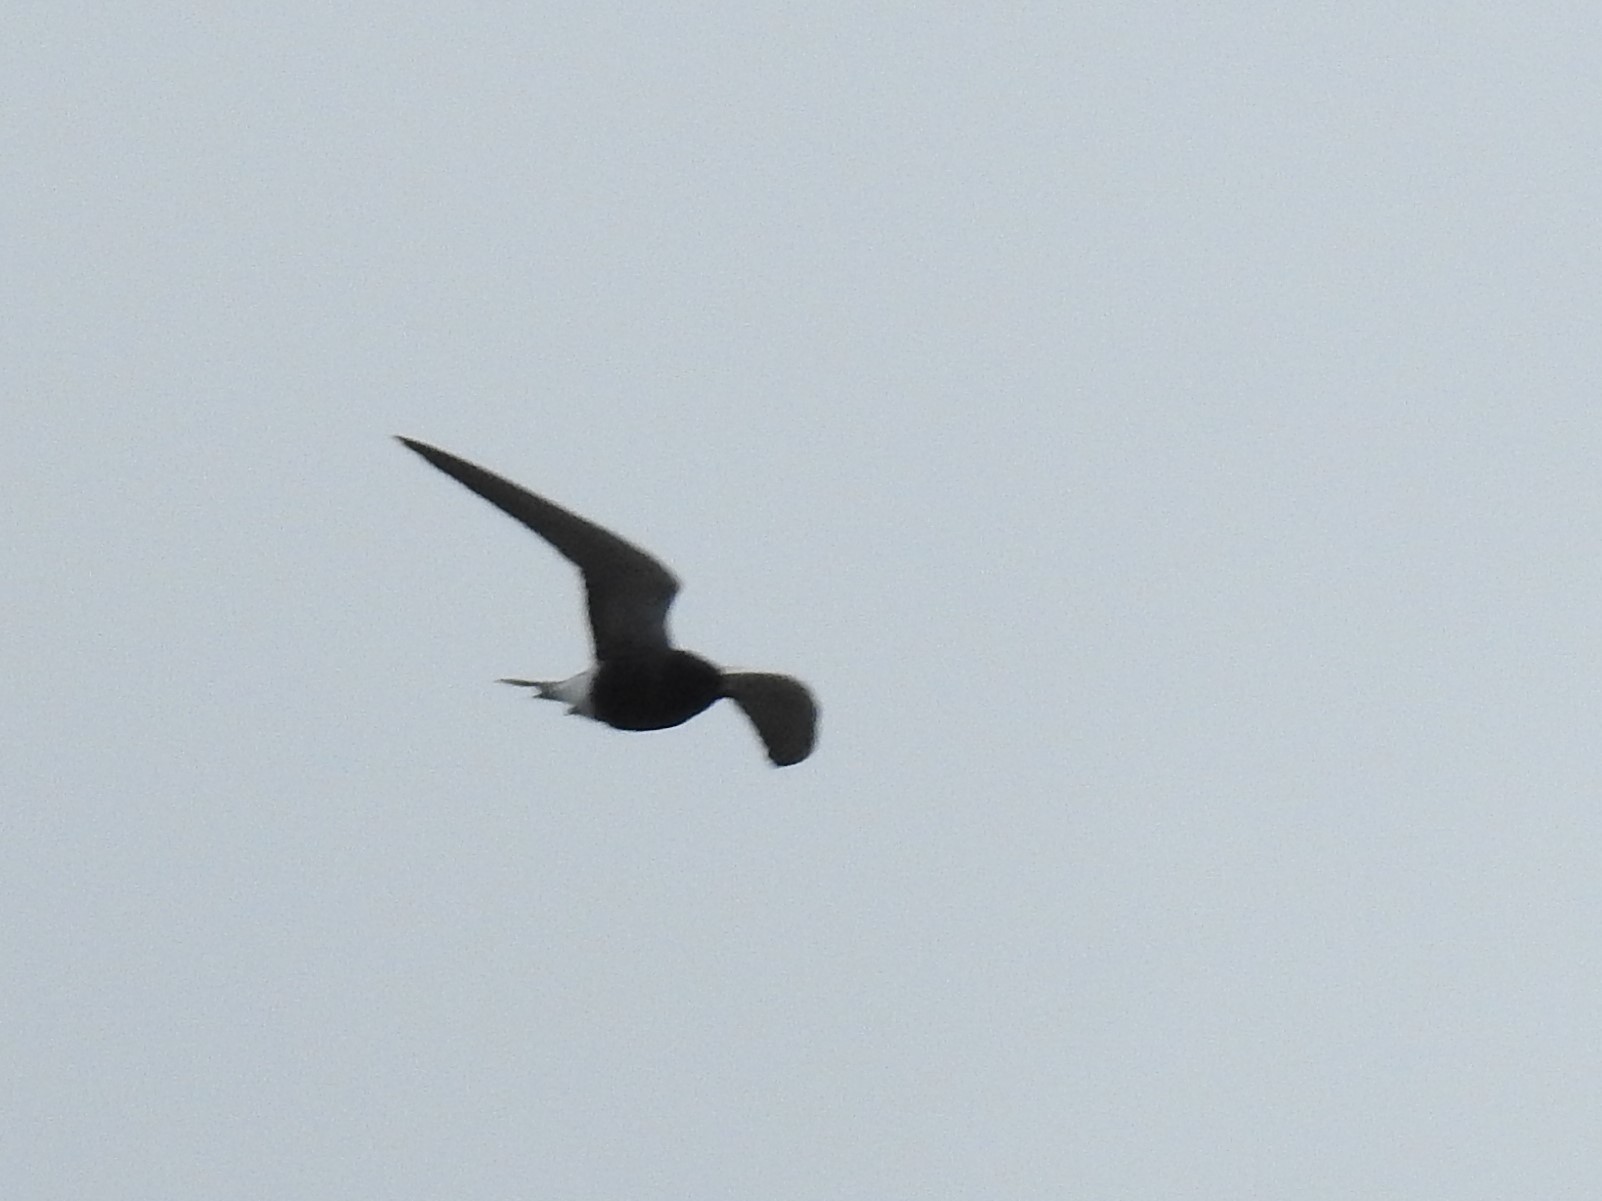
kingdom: Animalia
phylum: Chordata
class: Aves
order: Charadriiformes
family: Laridae
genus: Chlidonias
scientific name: Chlidonias niger
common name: Black tern
